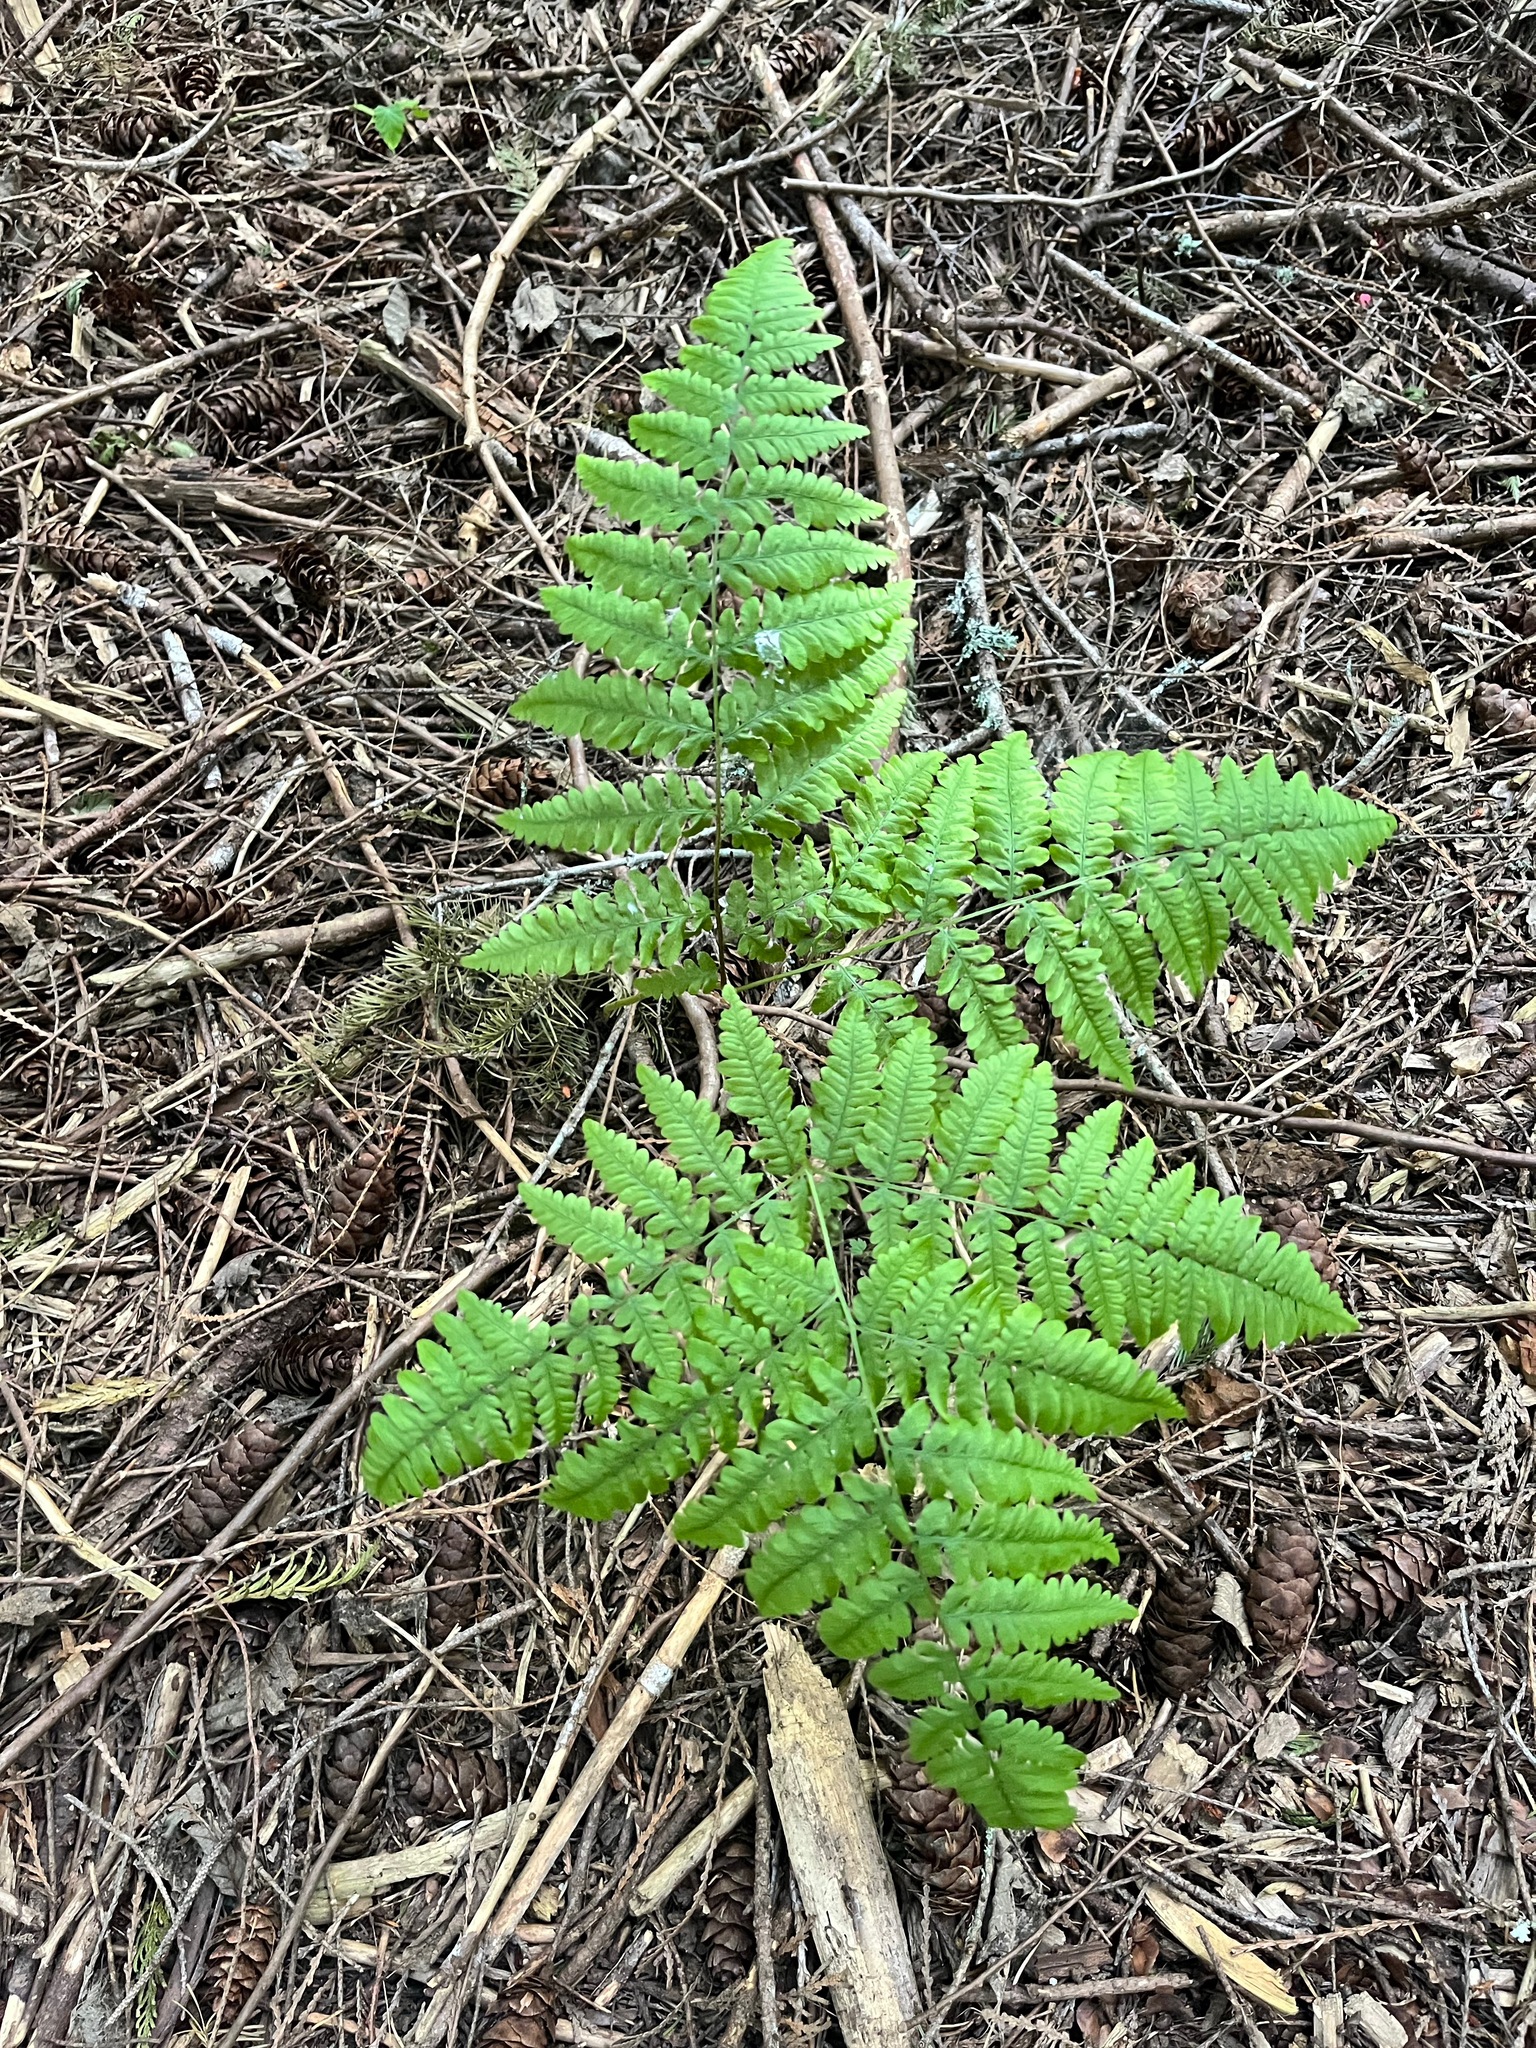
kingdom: Plantae
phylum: Tracheophyta
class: Polypodiopsida
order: Polypodiales
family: Dennstaedtiaceae
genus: Pteridium
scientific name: Pteridium aquilinum
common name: Bracken
